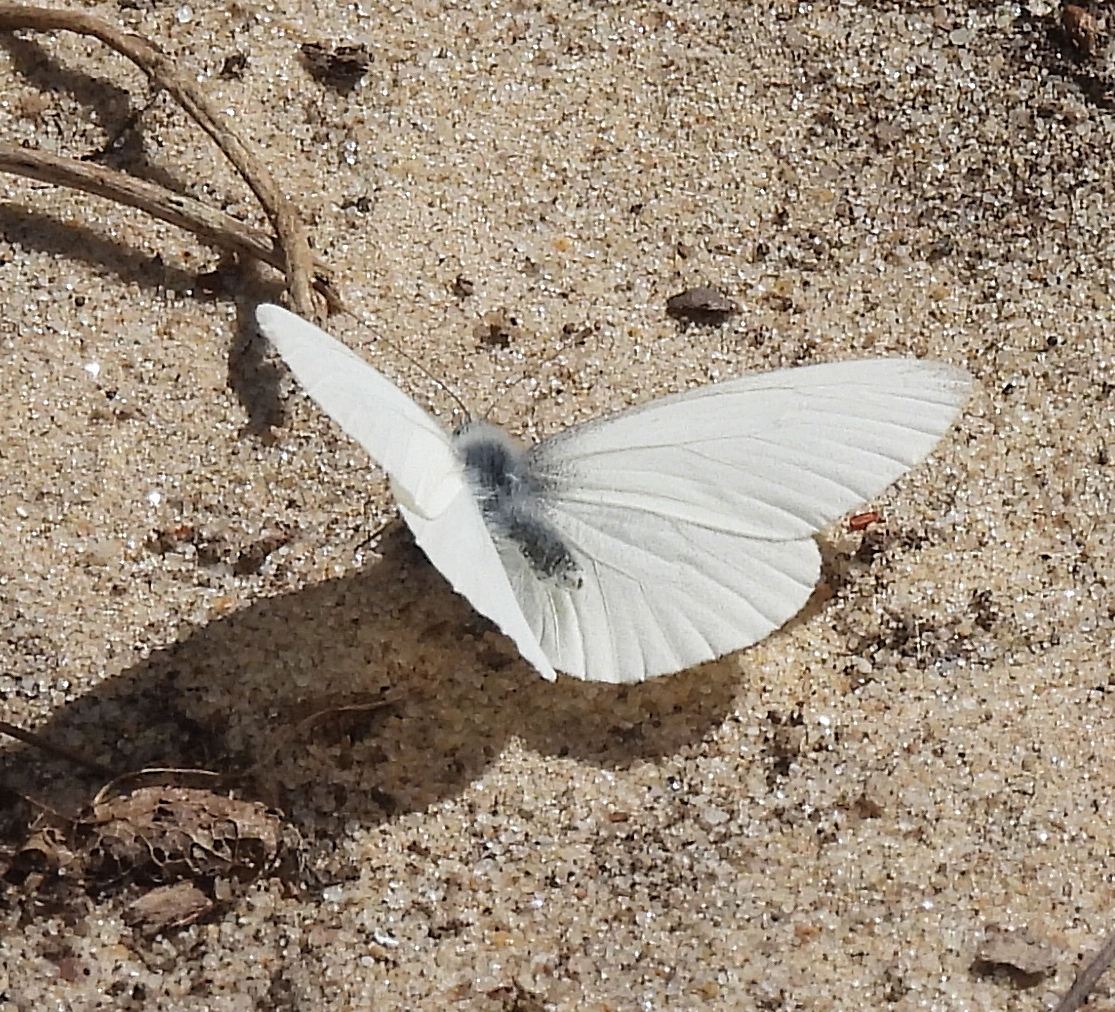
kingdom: Animalia
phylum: Arthropoda
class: Insecta
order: Lepidoptera
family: Pieridae
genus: Pieris
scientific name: Pieris virginiensis
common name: West virginia white
